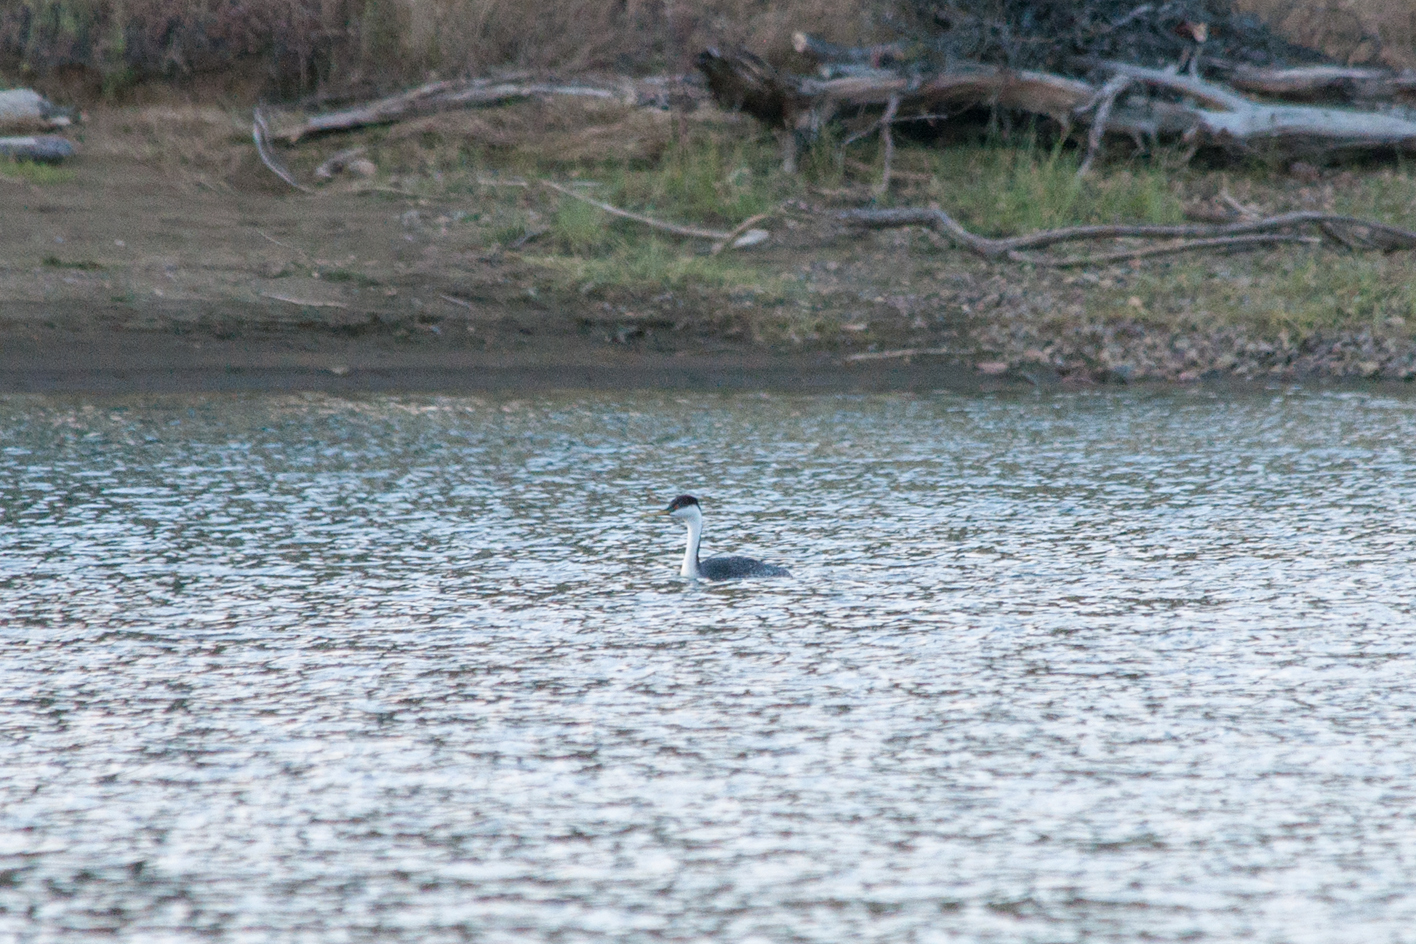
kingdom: Animalia
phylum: Chordata
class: Aves
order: Podicipediformes
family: Podicipedidae
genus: Aechmophorus
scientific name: Aechmophorus occidentalis
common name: Western grebe
